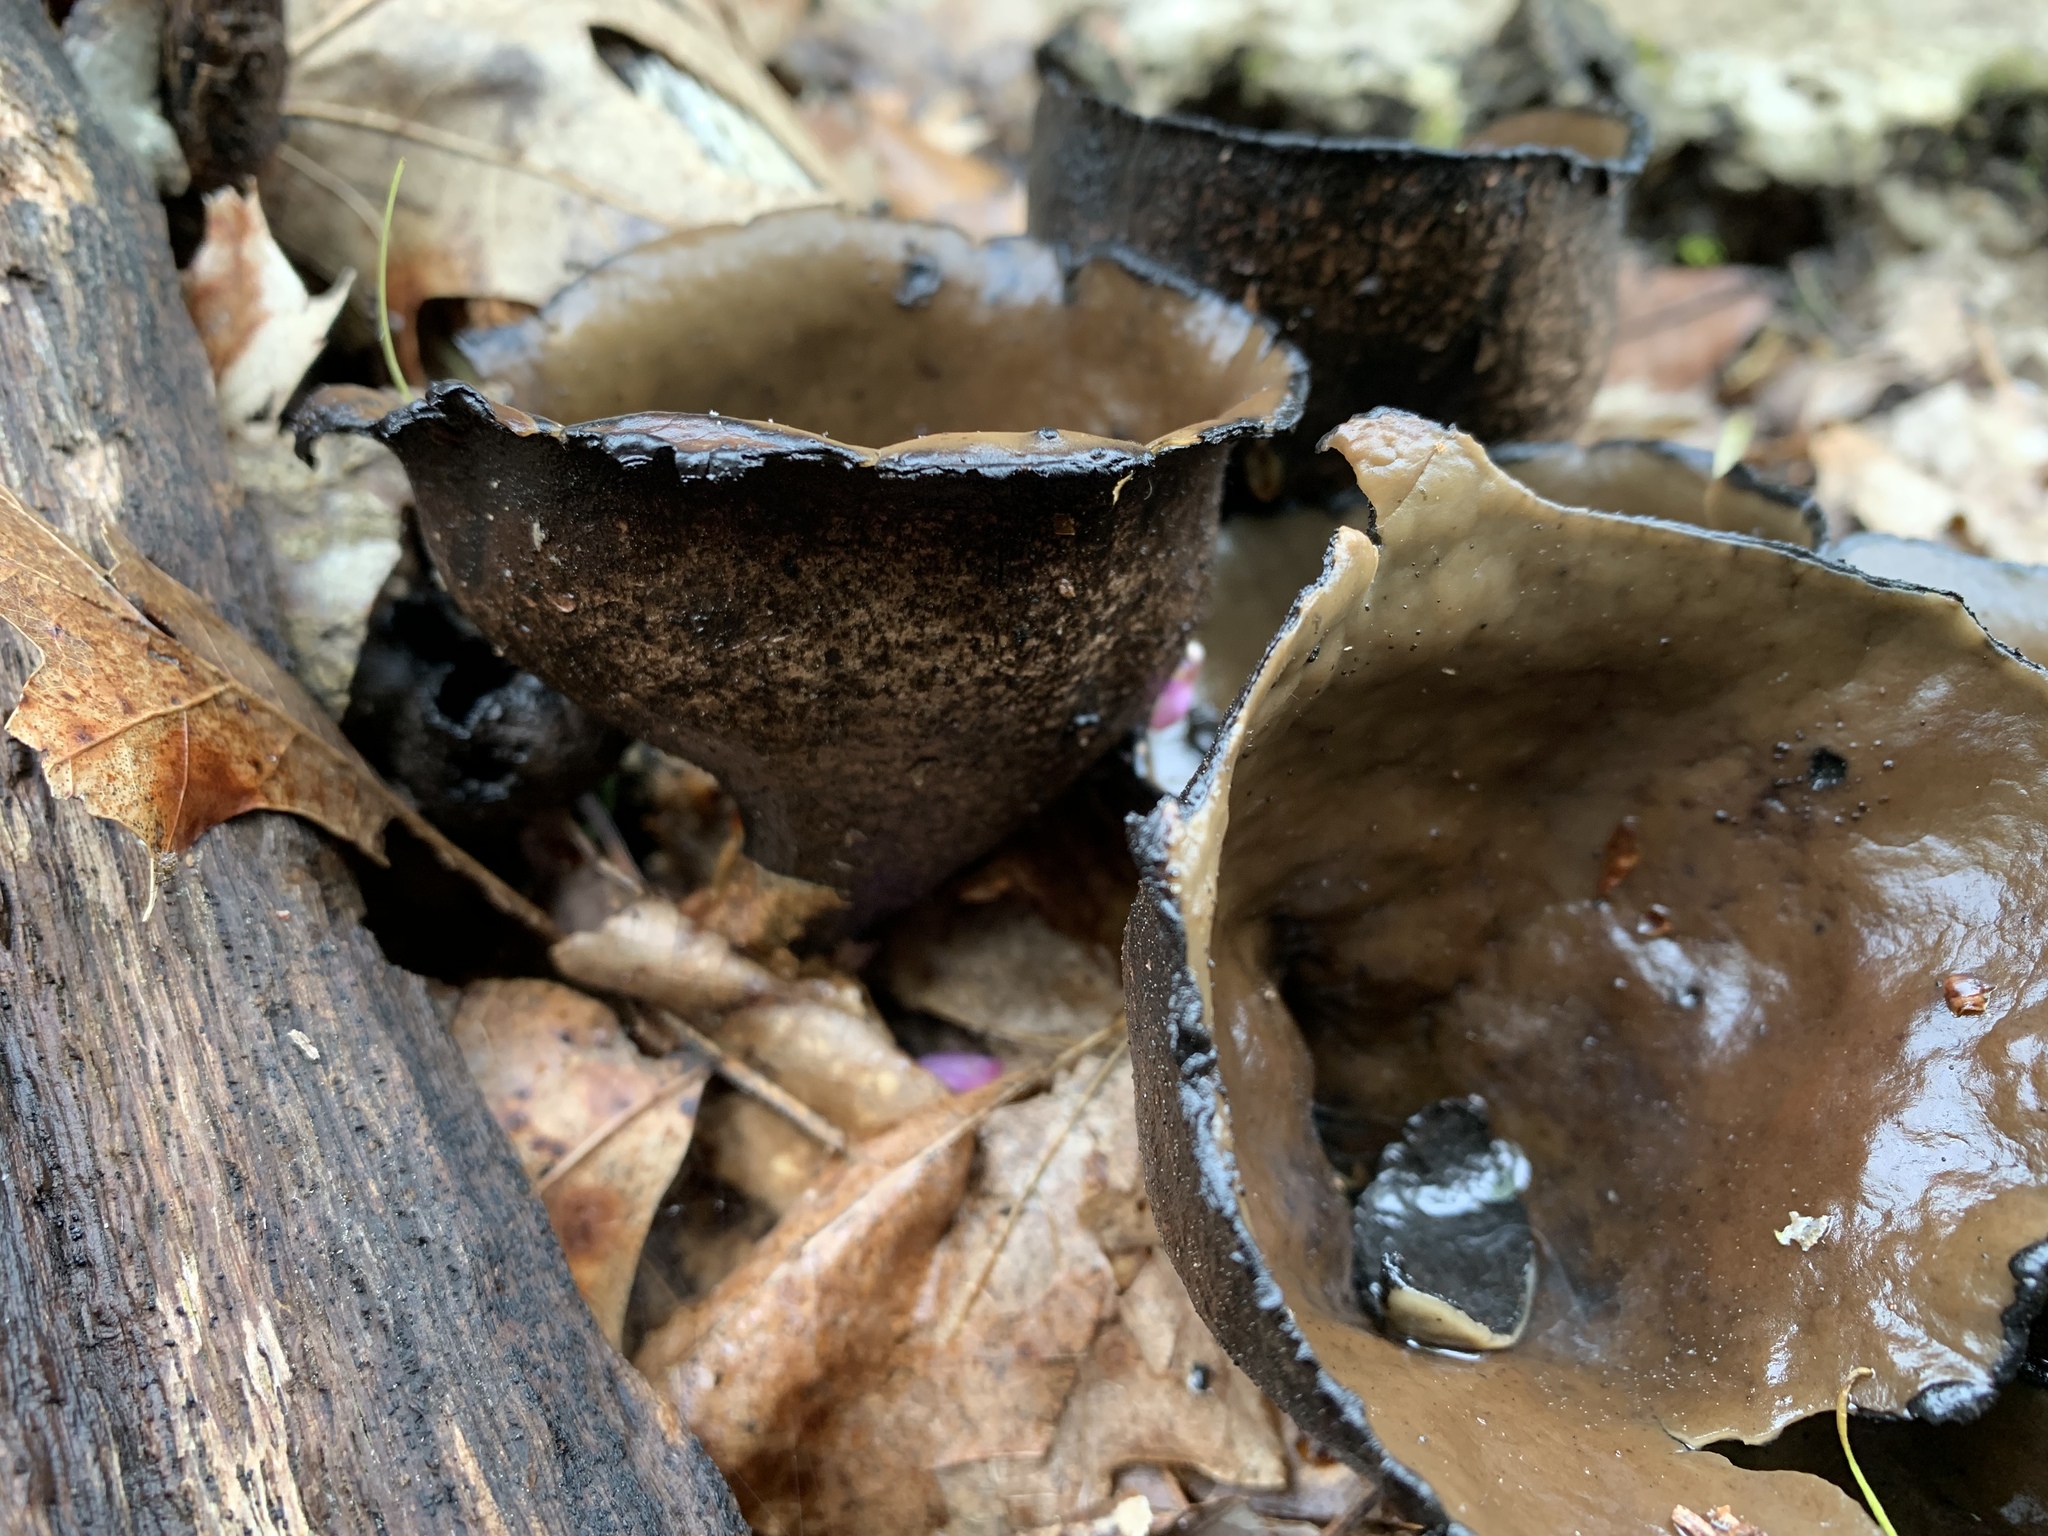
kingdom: Fungi
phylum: Ascomycota
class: Pezizomycetes
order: Pezizales
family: Sarcosomataceae
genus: Urnula
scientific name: Urnula craterium
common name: Devil's urn
